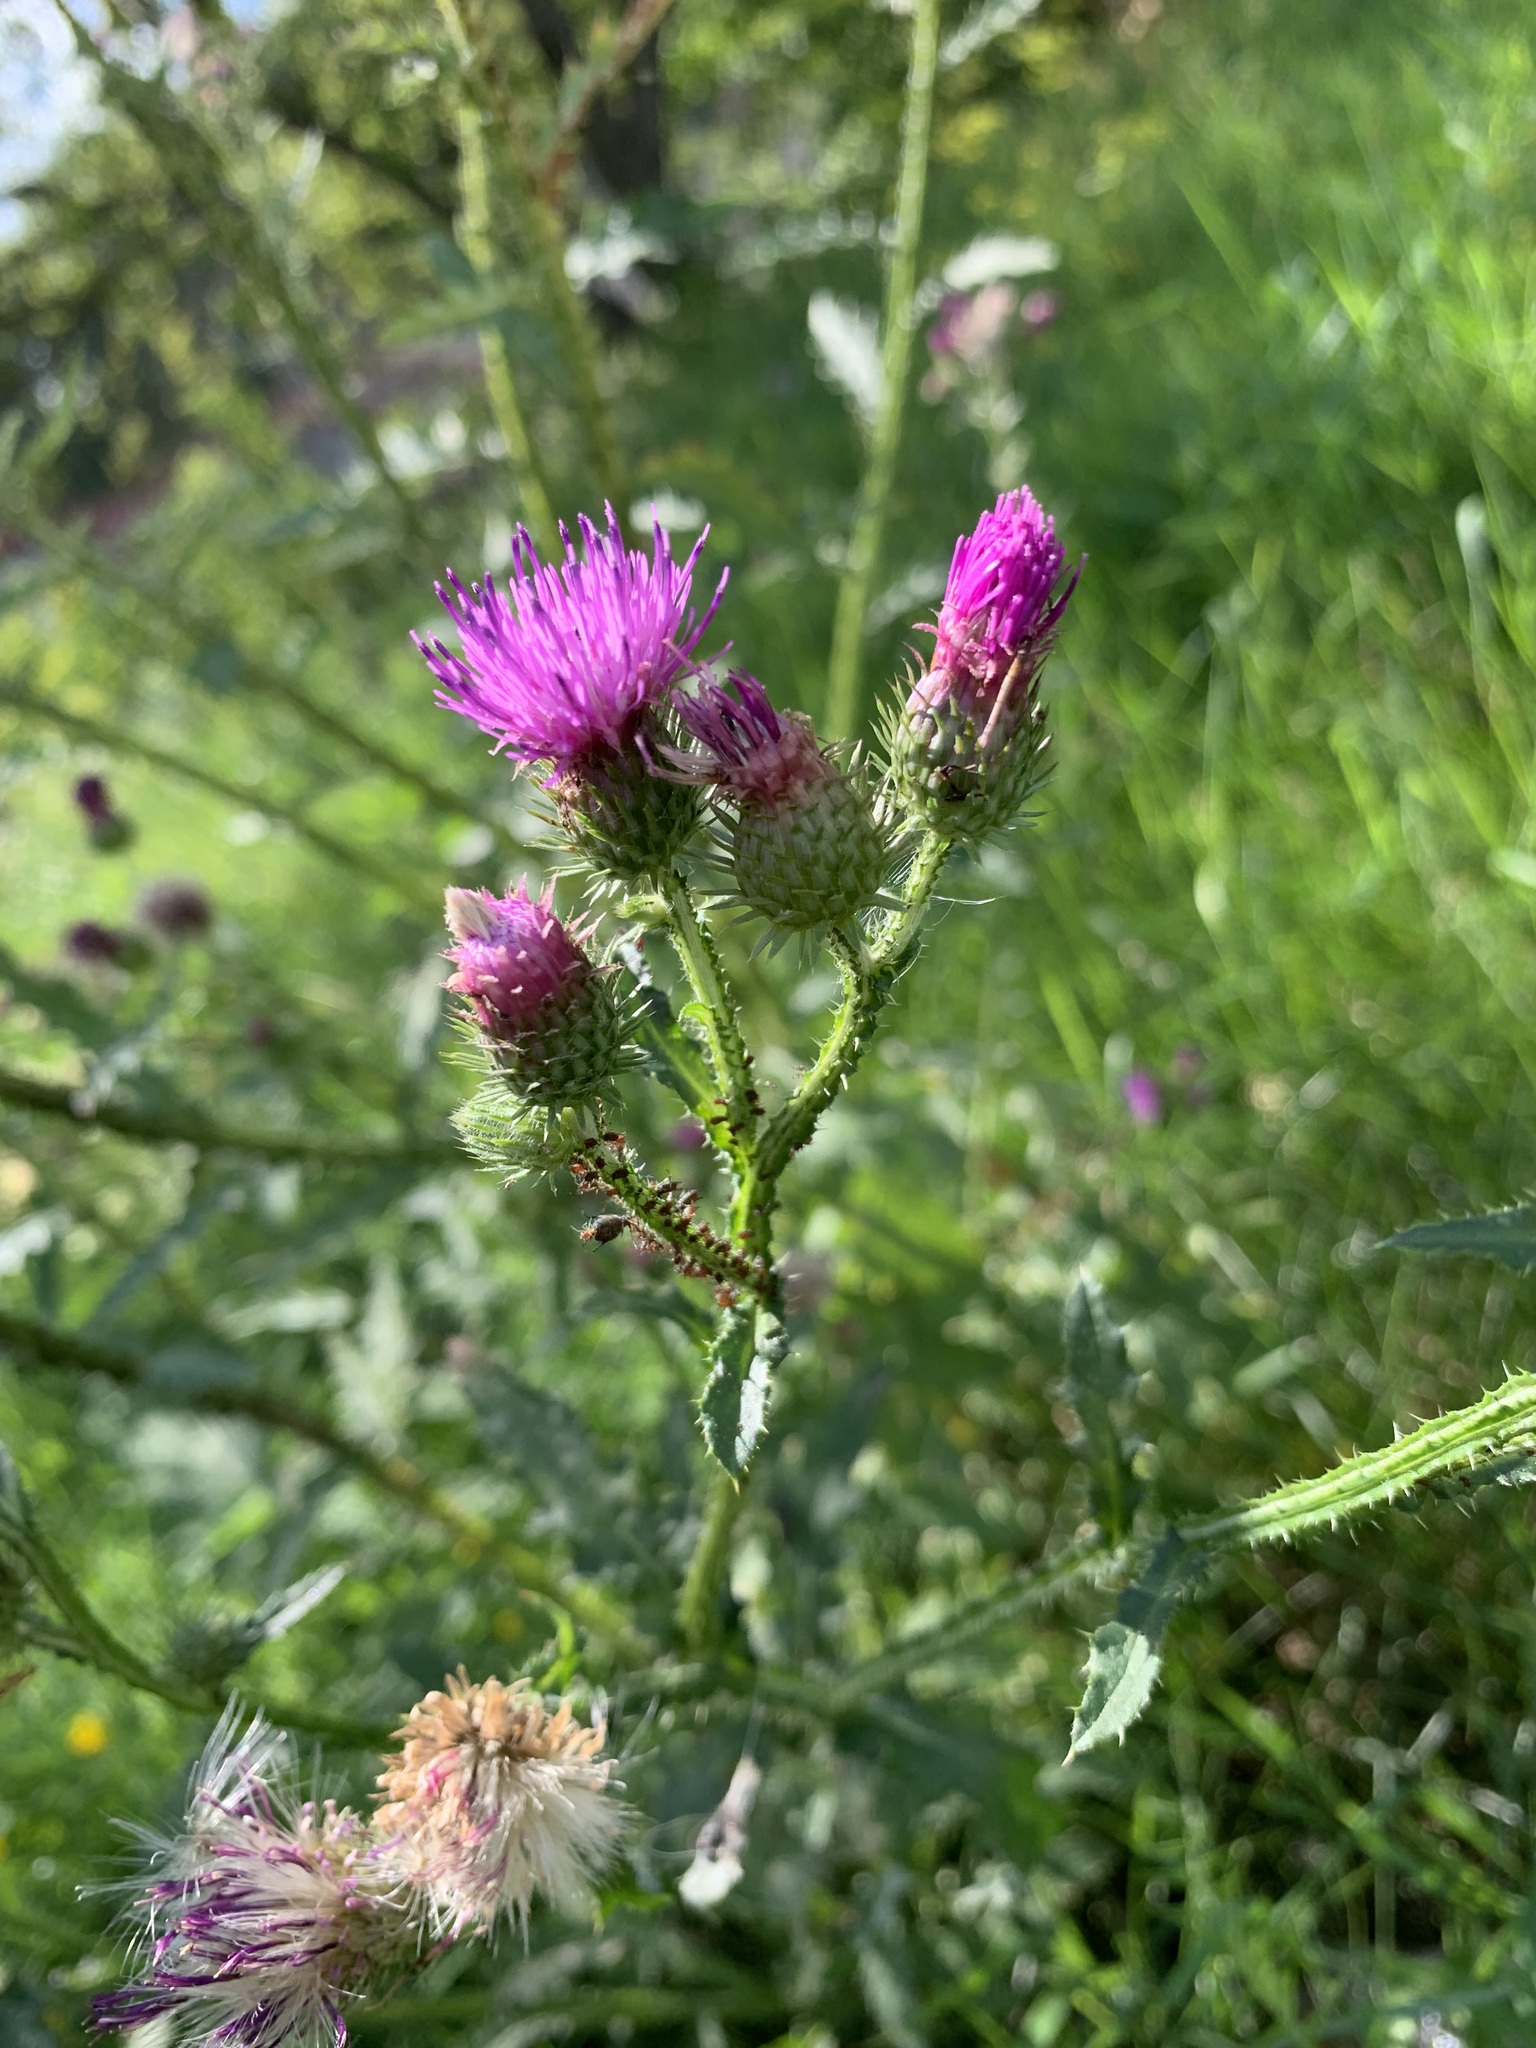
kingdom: Plantae
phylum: Tracheophyta
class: Magnoliopsida
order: Asterales
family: Asteraceae
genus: Carduus
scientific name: Carduus crispus
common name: Welted thistle
